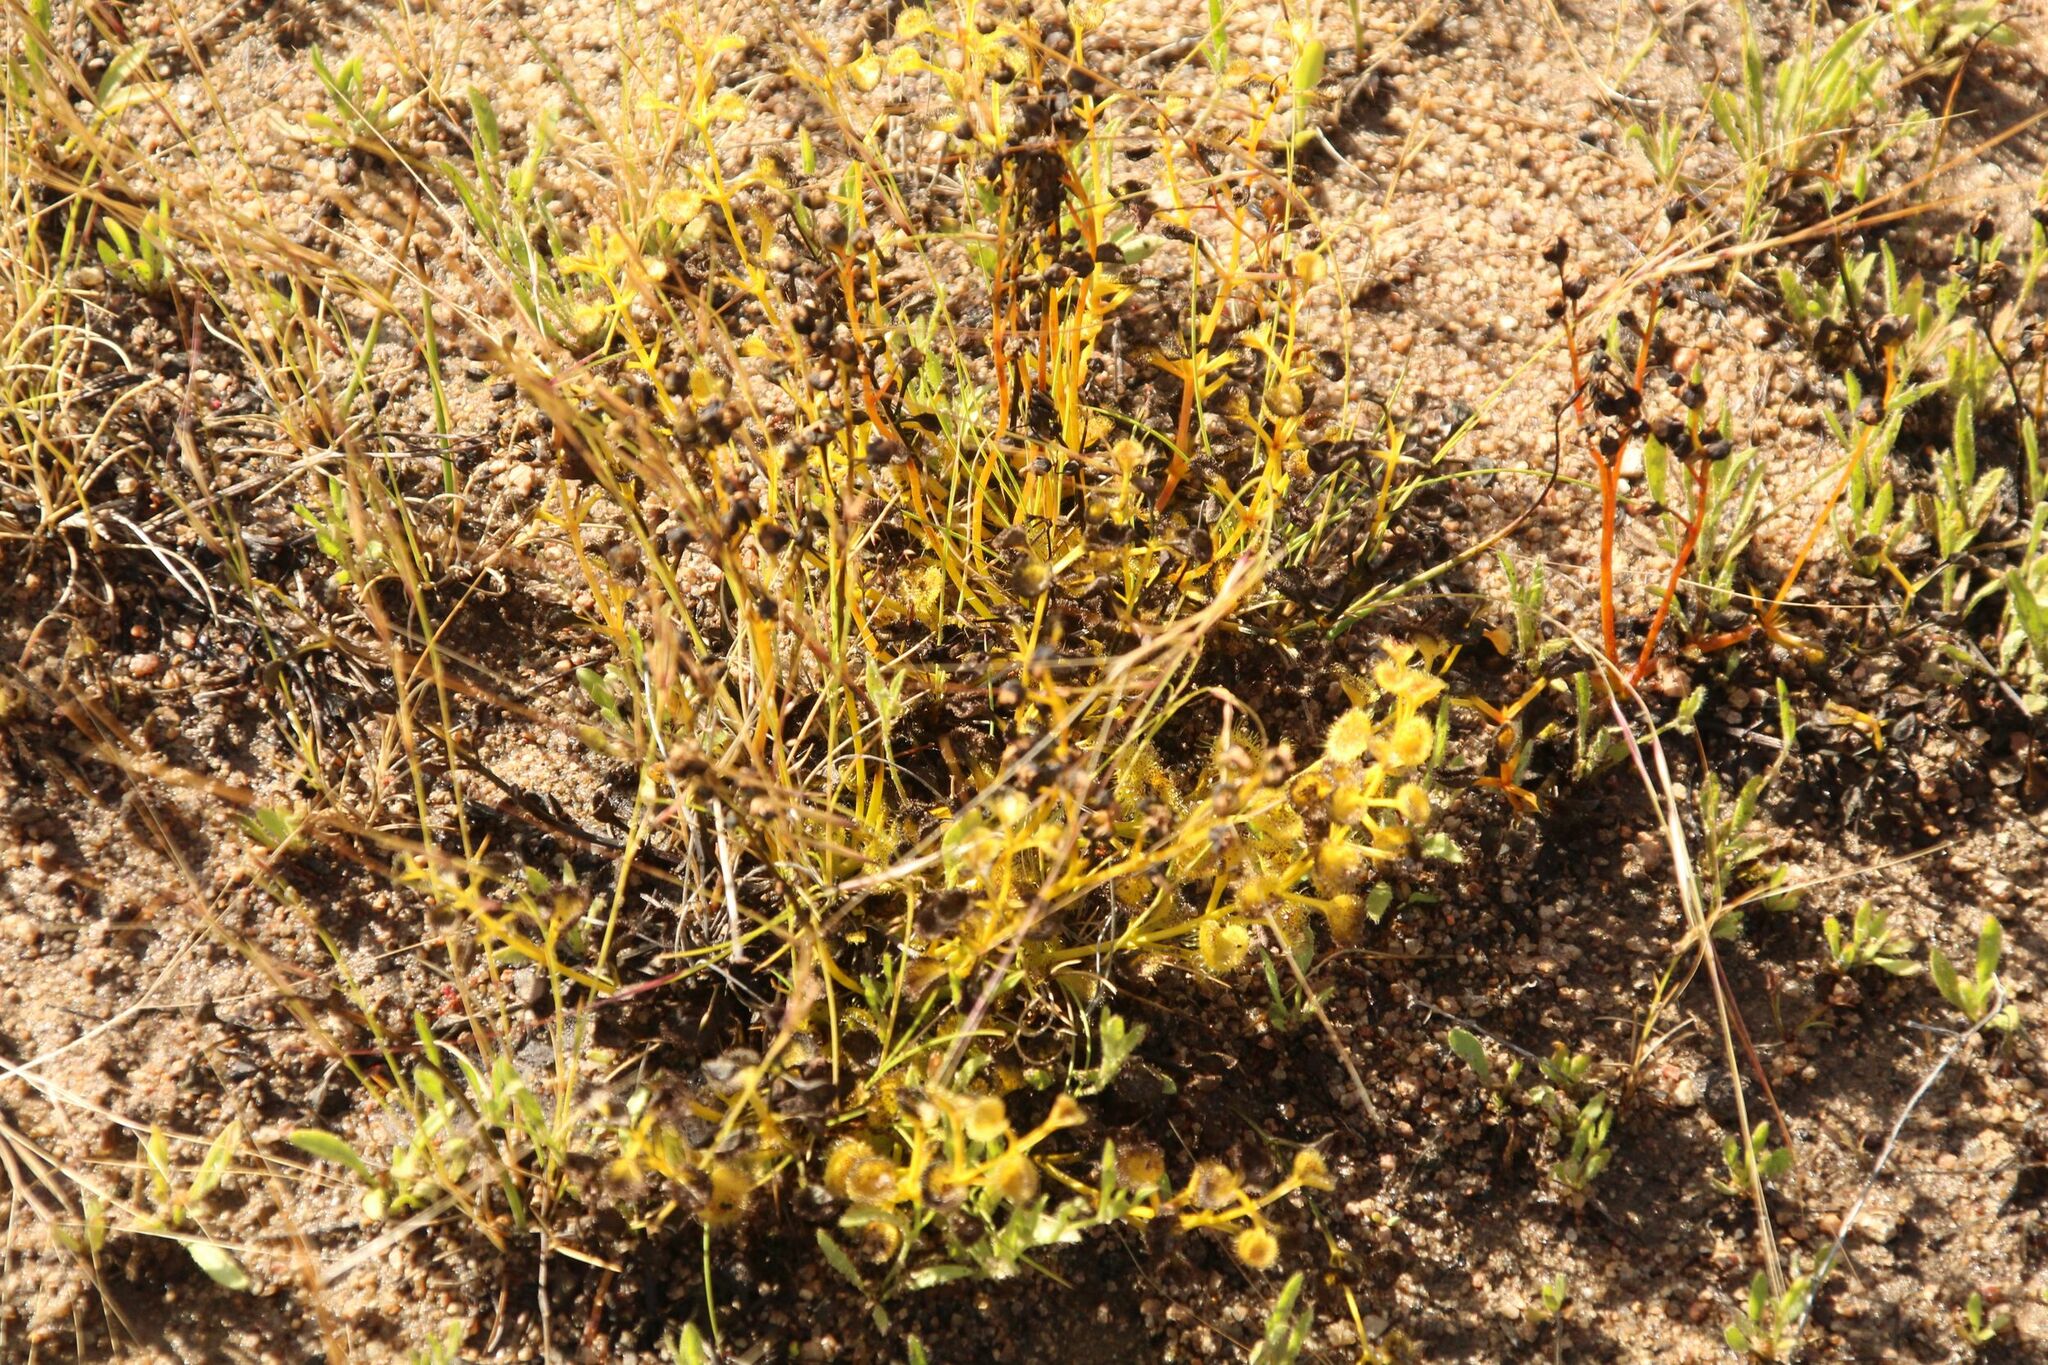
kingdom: Plantae
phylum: Tracheophyta
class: Magnoliopsida
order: Caryophyllales
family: Droseraceae
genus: Drosera
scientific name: Drosera rupicola
